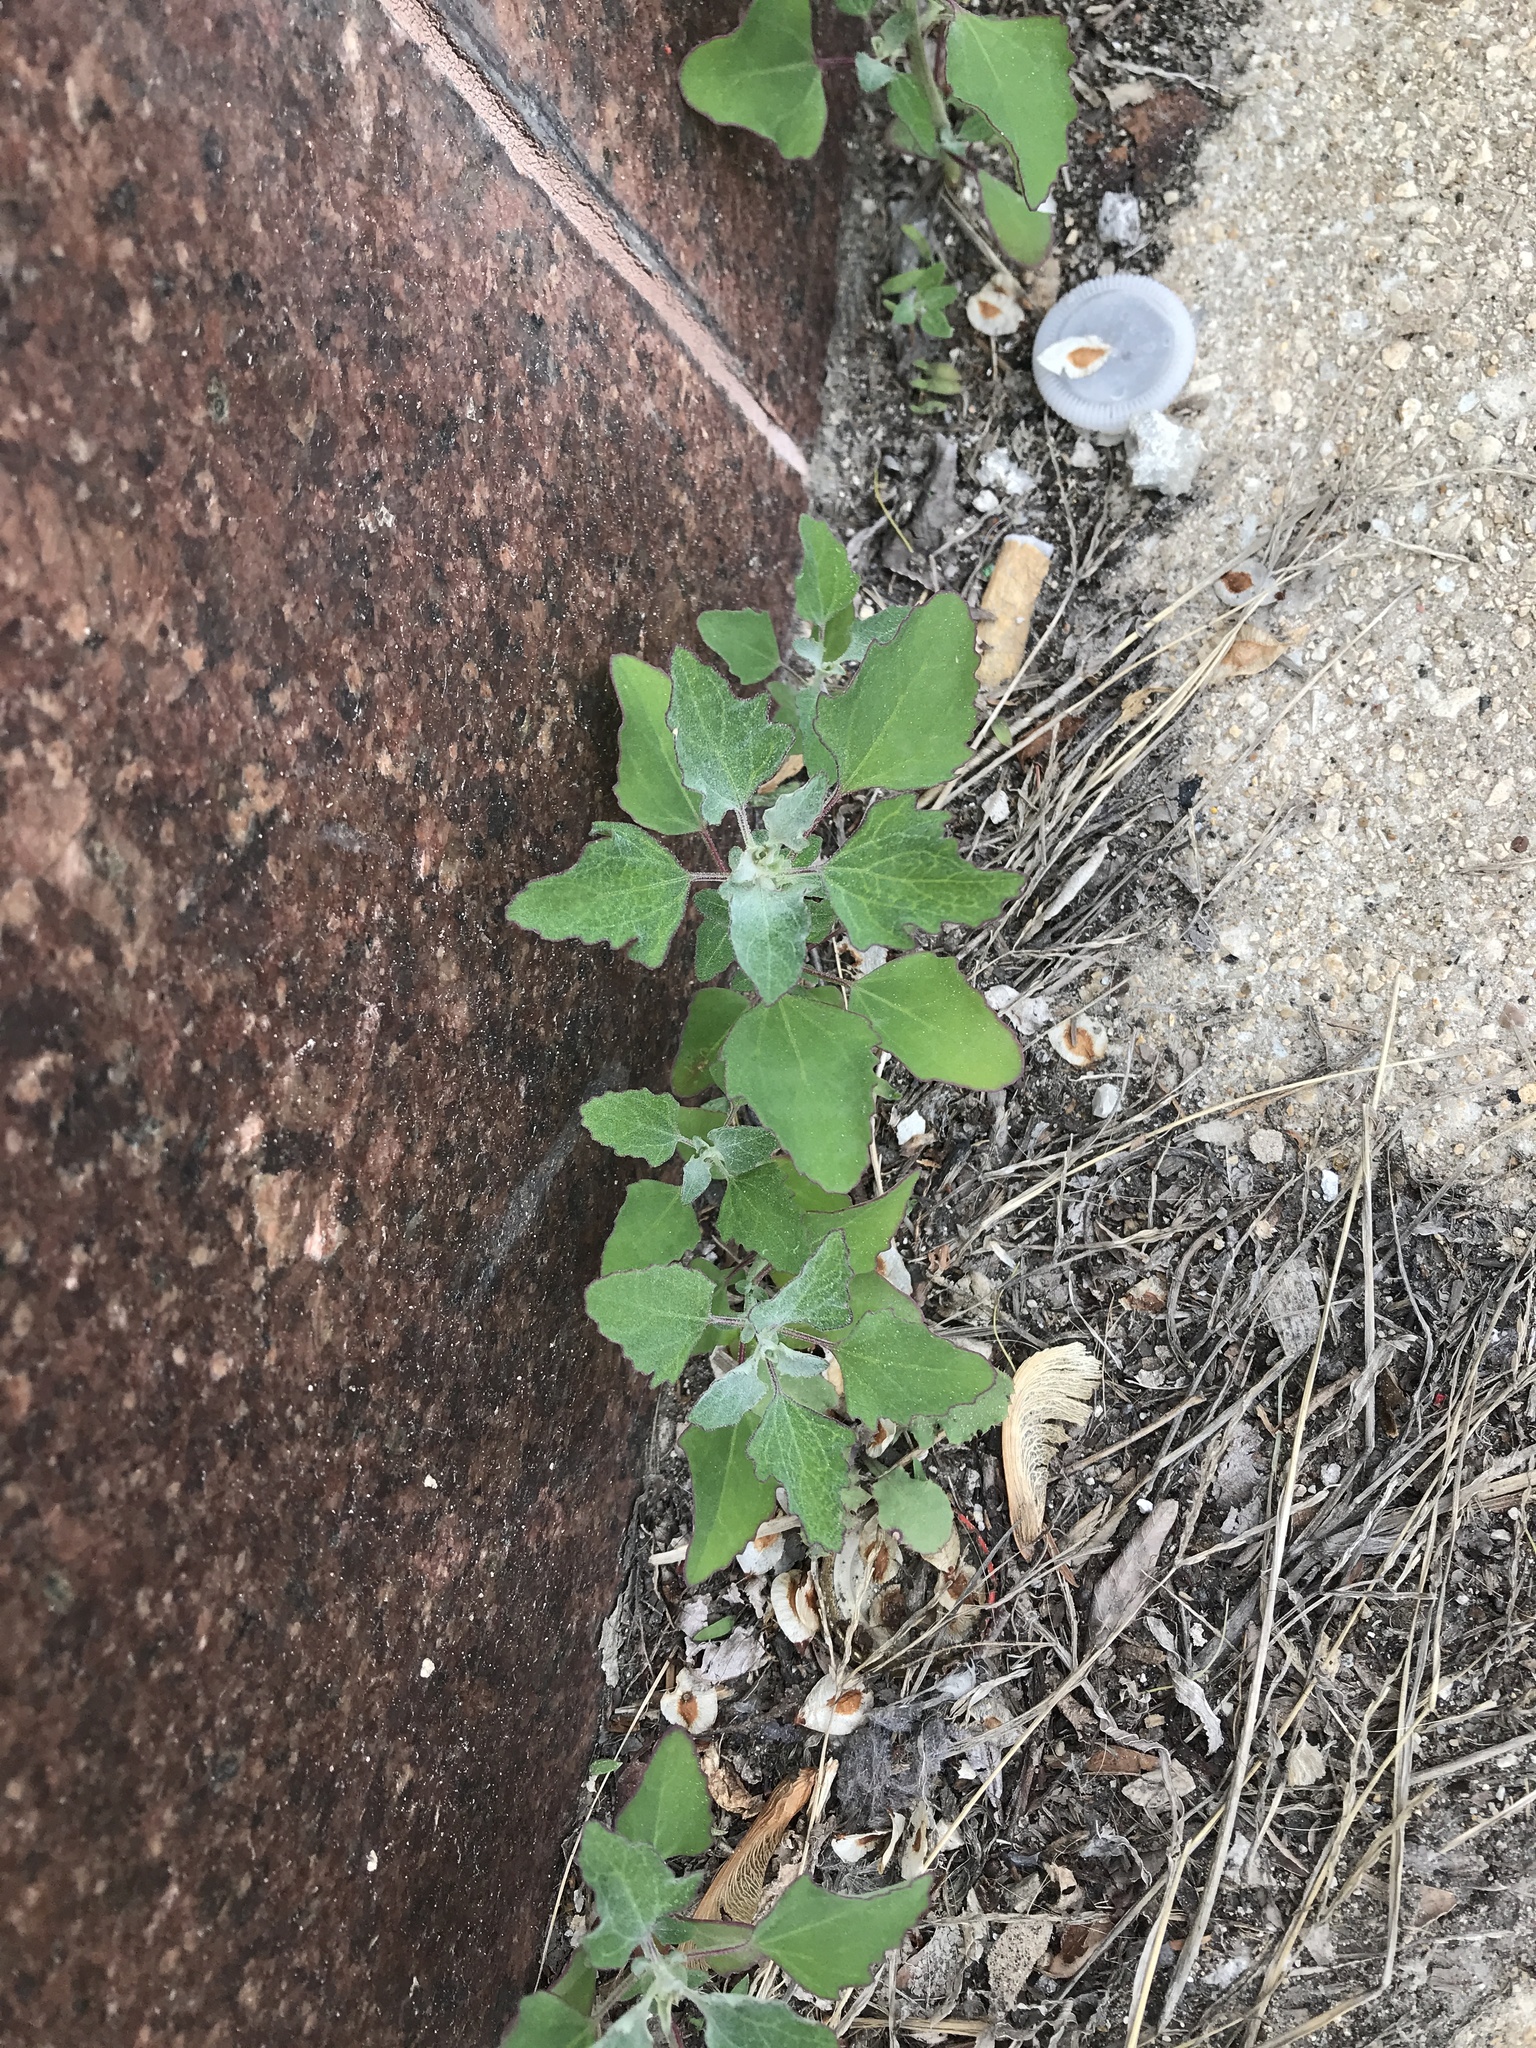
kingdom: Plantae
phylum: Tracheophyta
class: Magnoliopsida
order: Caryophyllales
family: Amaranthaceae
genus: Chenopodium
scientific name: Chenopodium album
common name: Fat-hen
